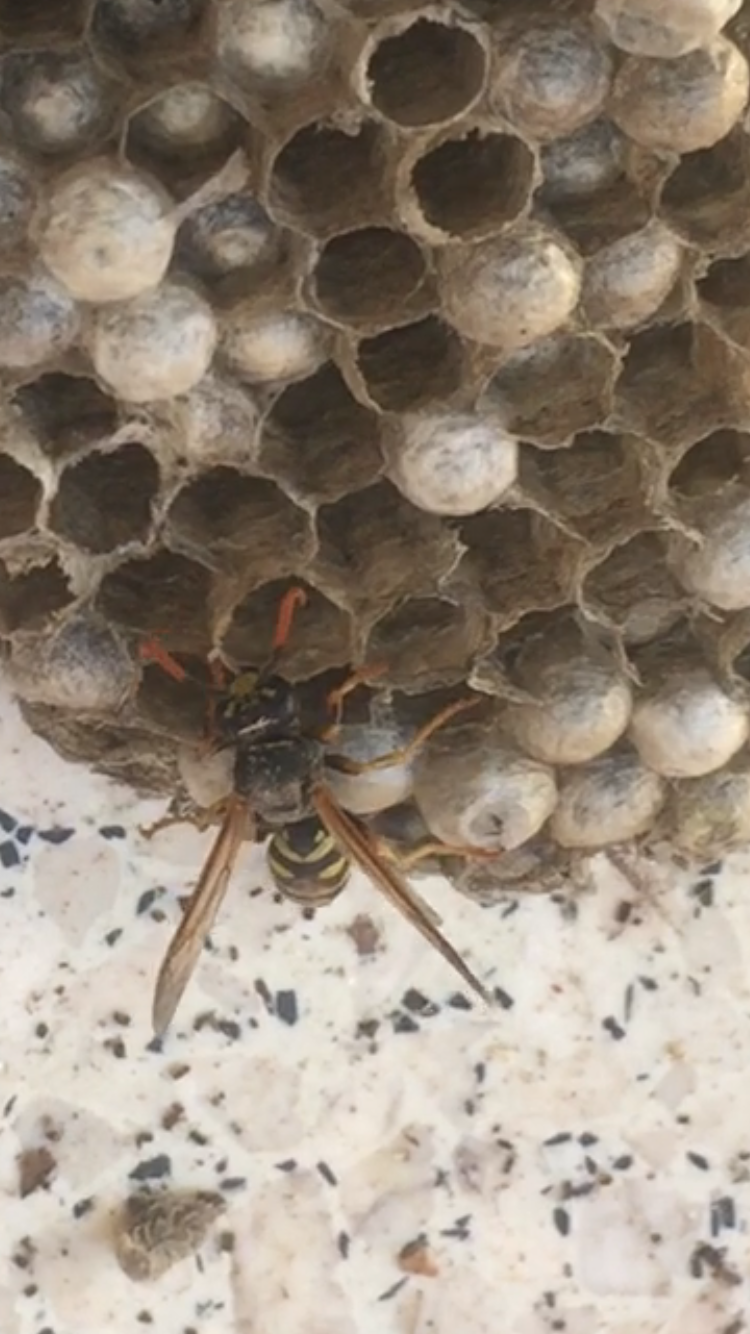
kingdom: Animalia
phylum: Arthropoda
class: Insecta
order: Hymenoptera
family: Eumenidae
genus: Polistes
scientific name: Polistes dominula
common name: Paper wasp
